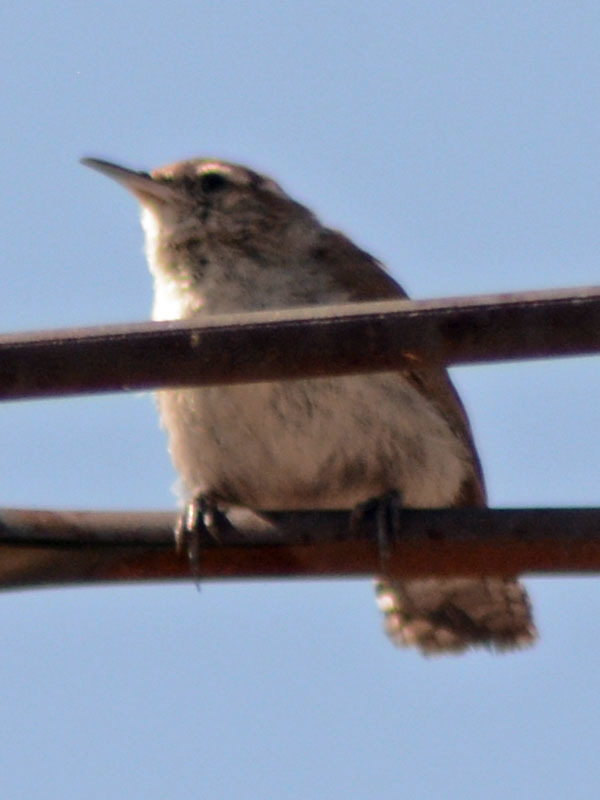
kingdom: Animalia
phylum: Chordata
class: Aves
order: Passeriformes
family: Troglodytidae
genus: Thryomanes
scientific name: Thryomanes bewickii
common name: Bewick's wren
